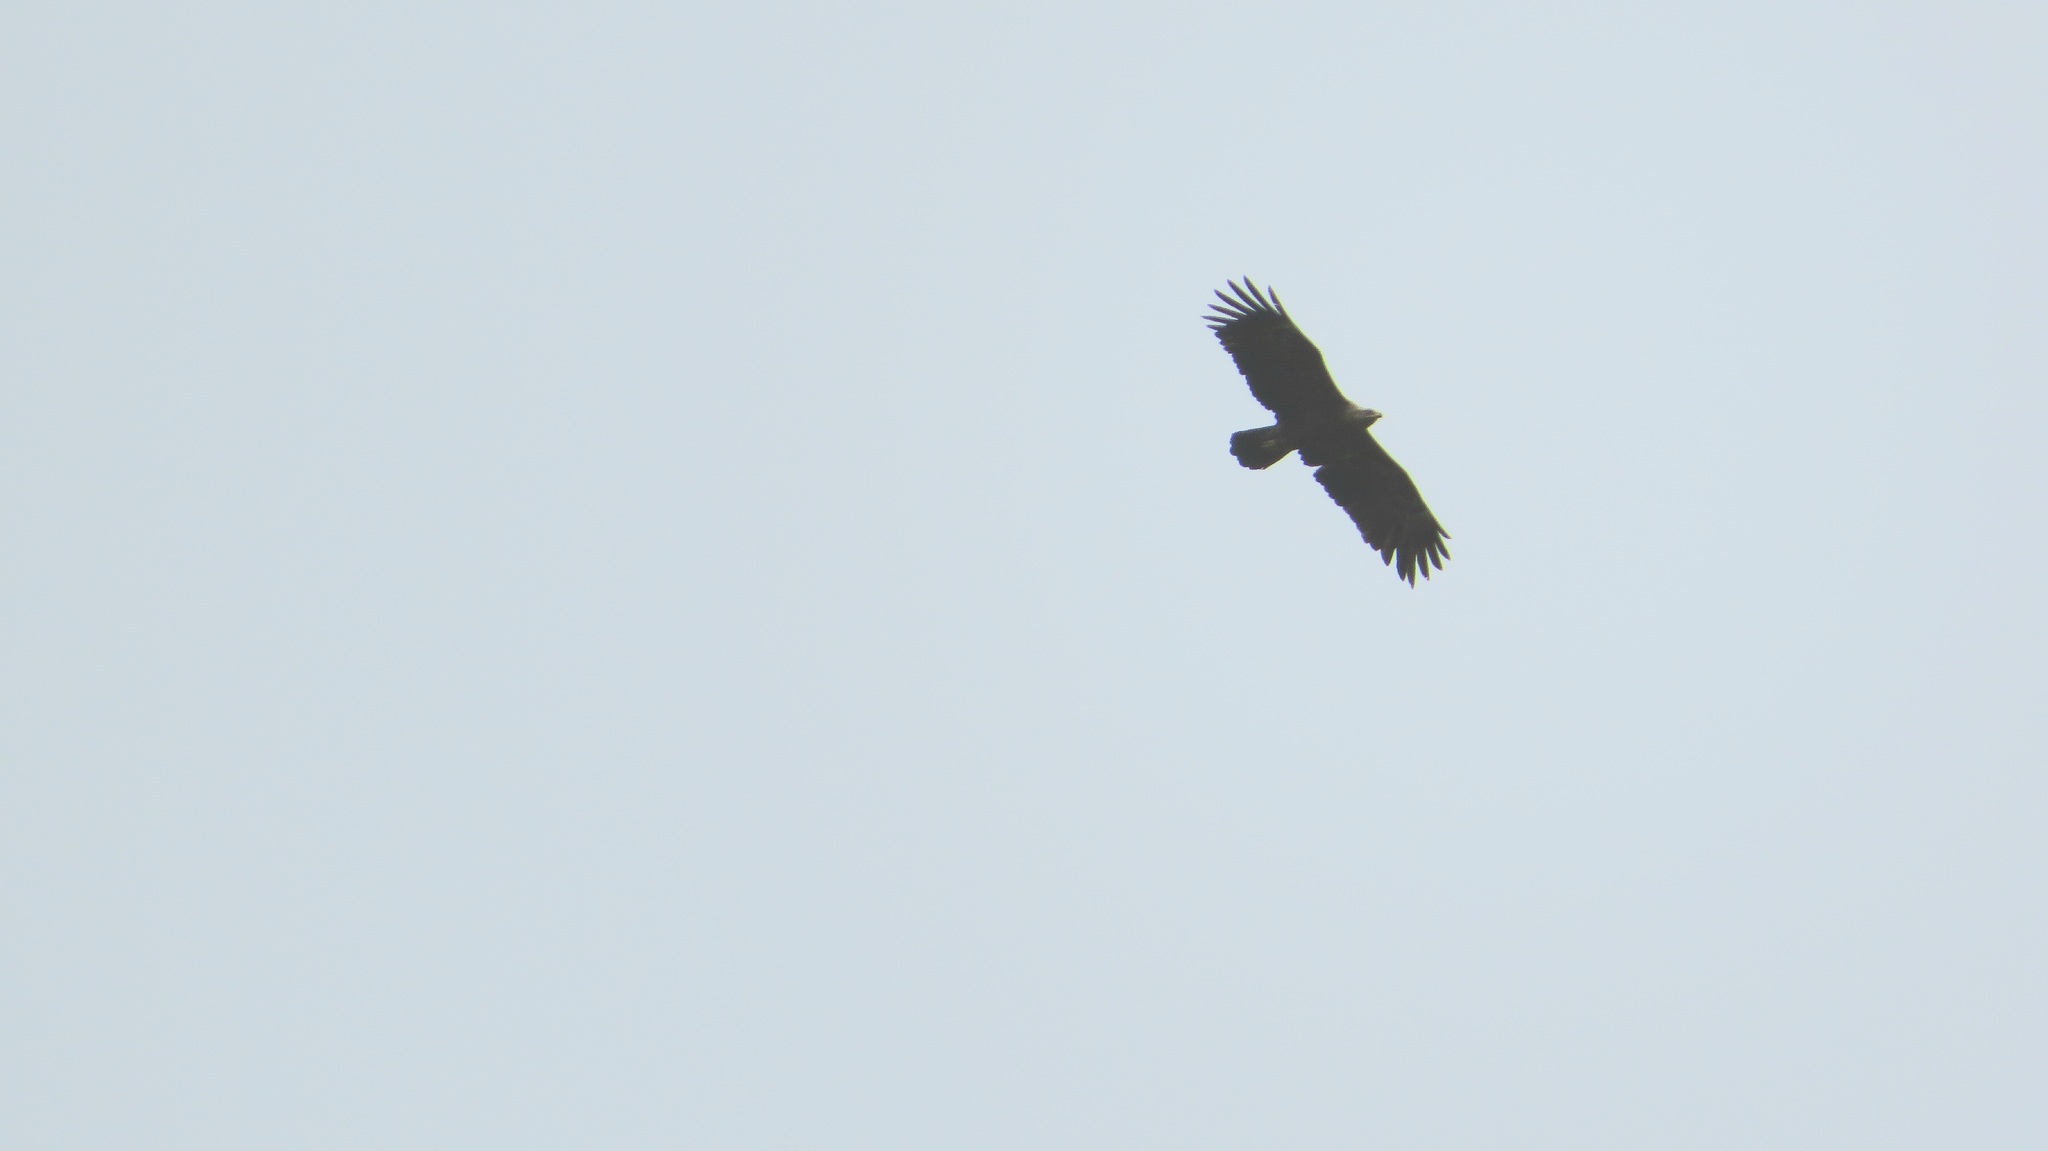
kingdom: Animalia
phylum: Chordata
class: Aves
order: Accipitriformes
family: Accipitridae
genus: Aquila
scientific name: Aquila pomarina
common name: Lesser spotted eagle
